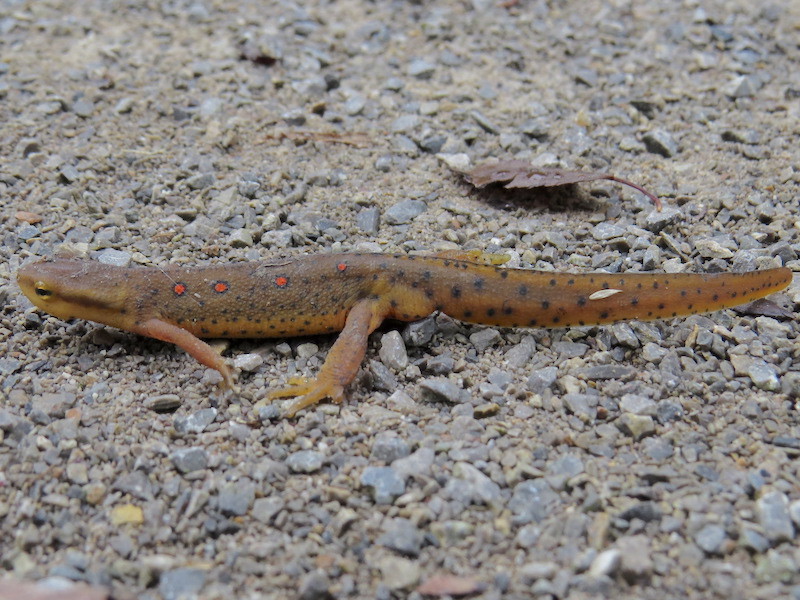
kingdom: Animalia
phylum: Chordata
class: Amphibia
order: Caudata
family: Salamandridae
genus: Notophthalmus
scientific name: Notophthalmus viridescens
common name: Eastern newt
